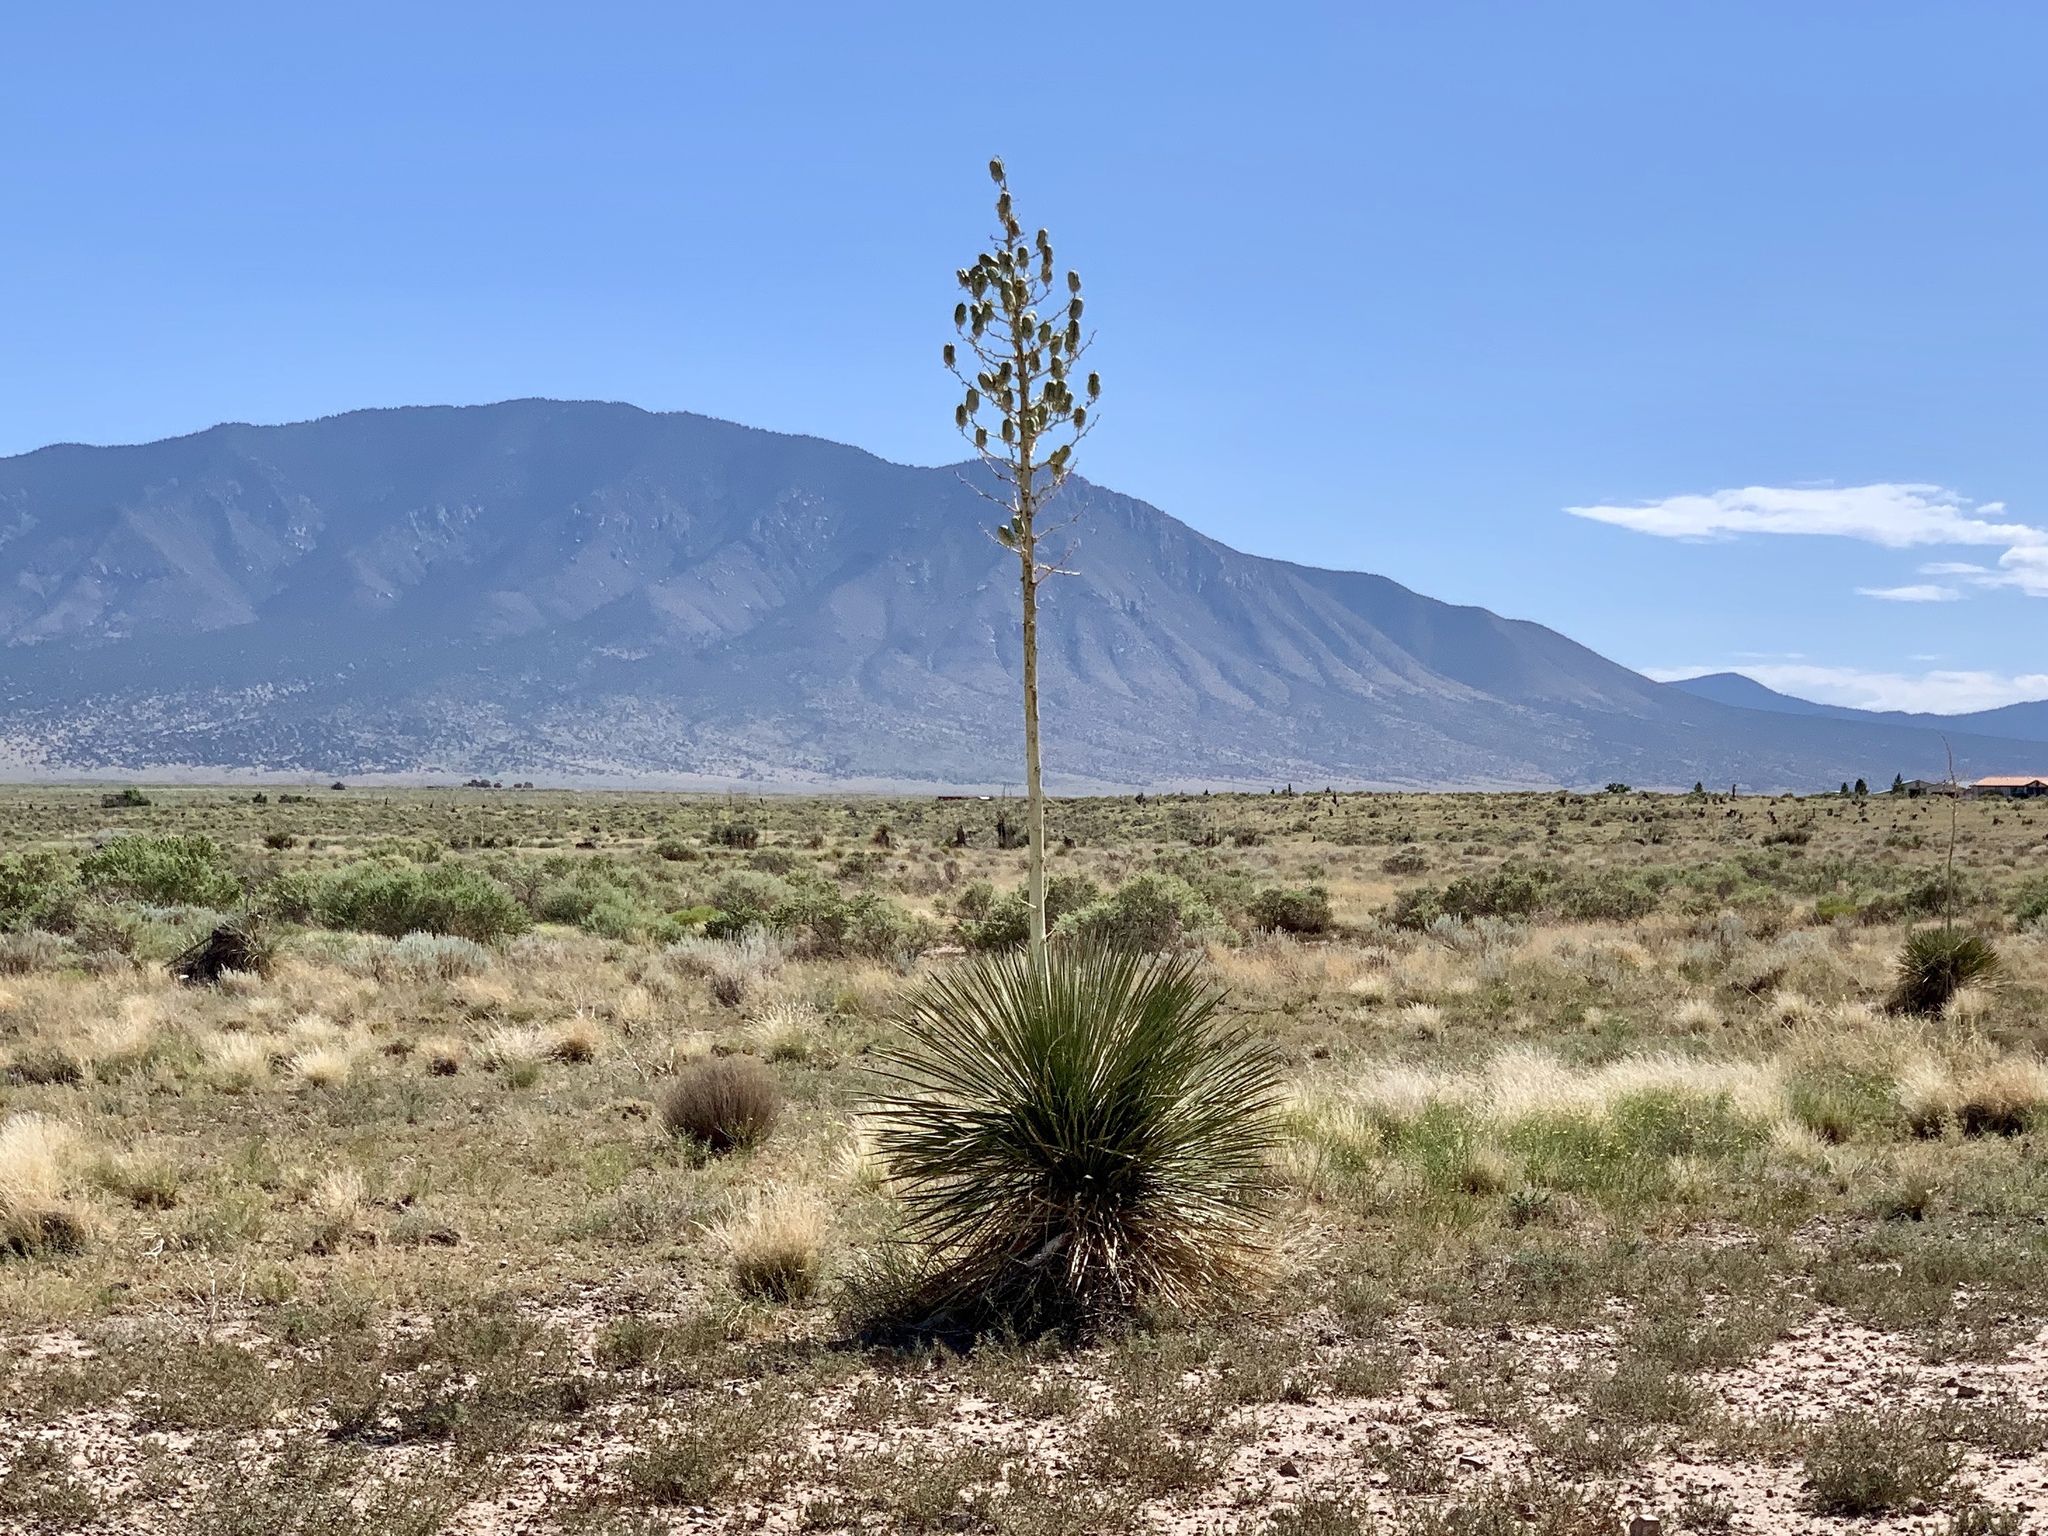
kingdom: Plantae
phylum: Tracheophyta
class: Liliopsida
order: Asparagales
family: Asparagaceae
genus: Yucca
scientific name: Yucca elata
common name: Palmella
